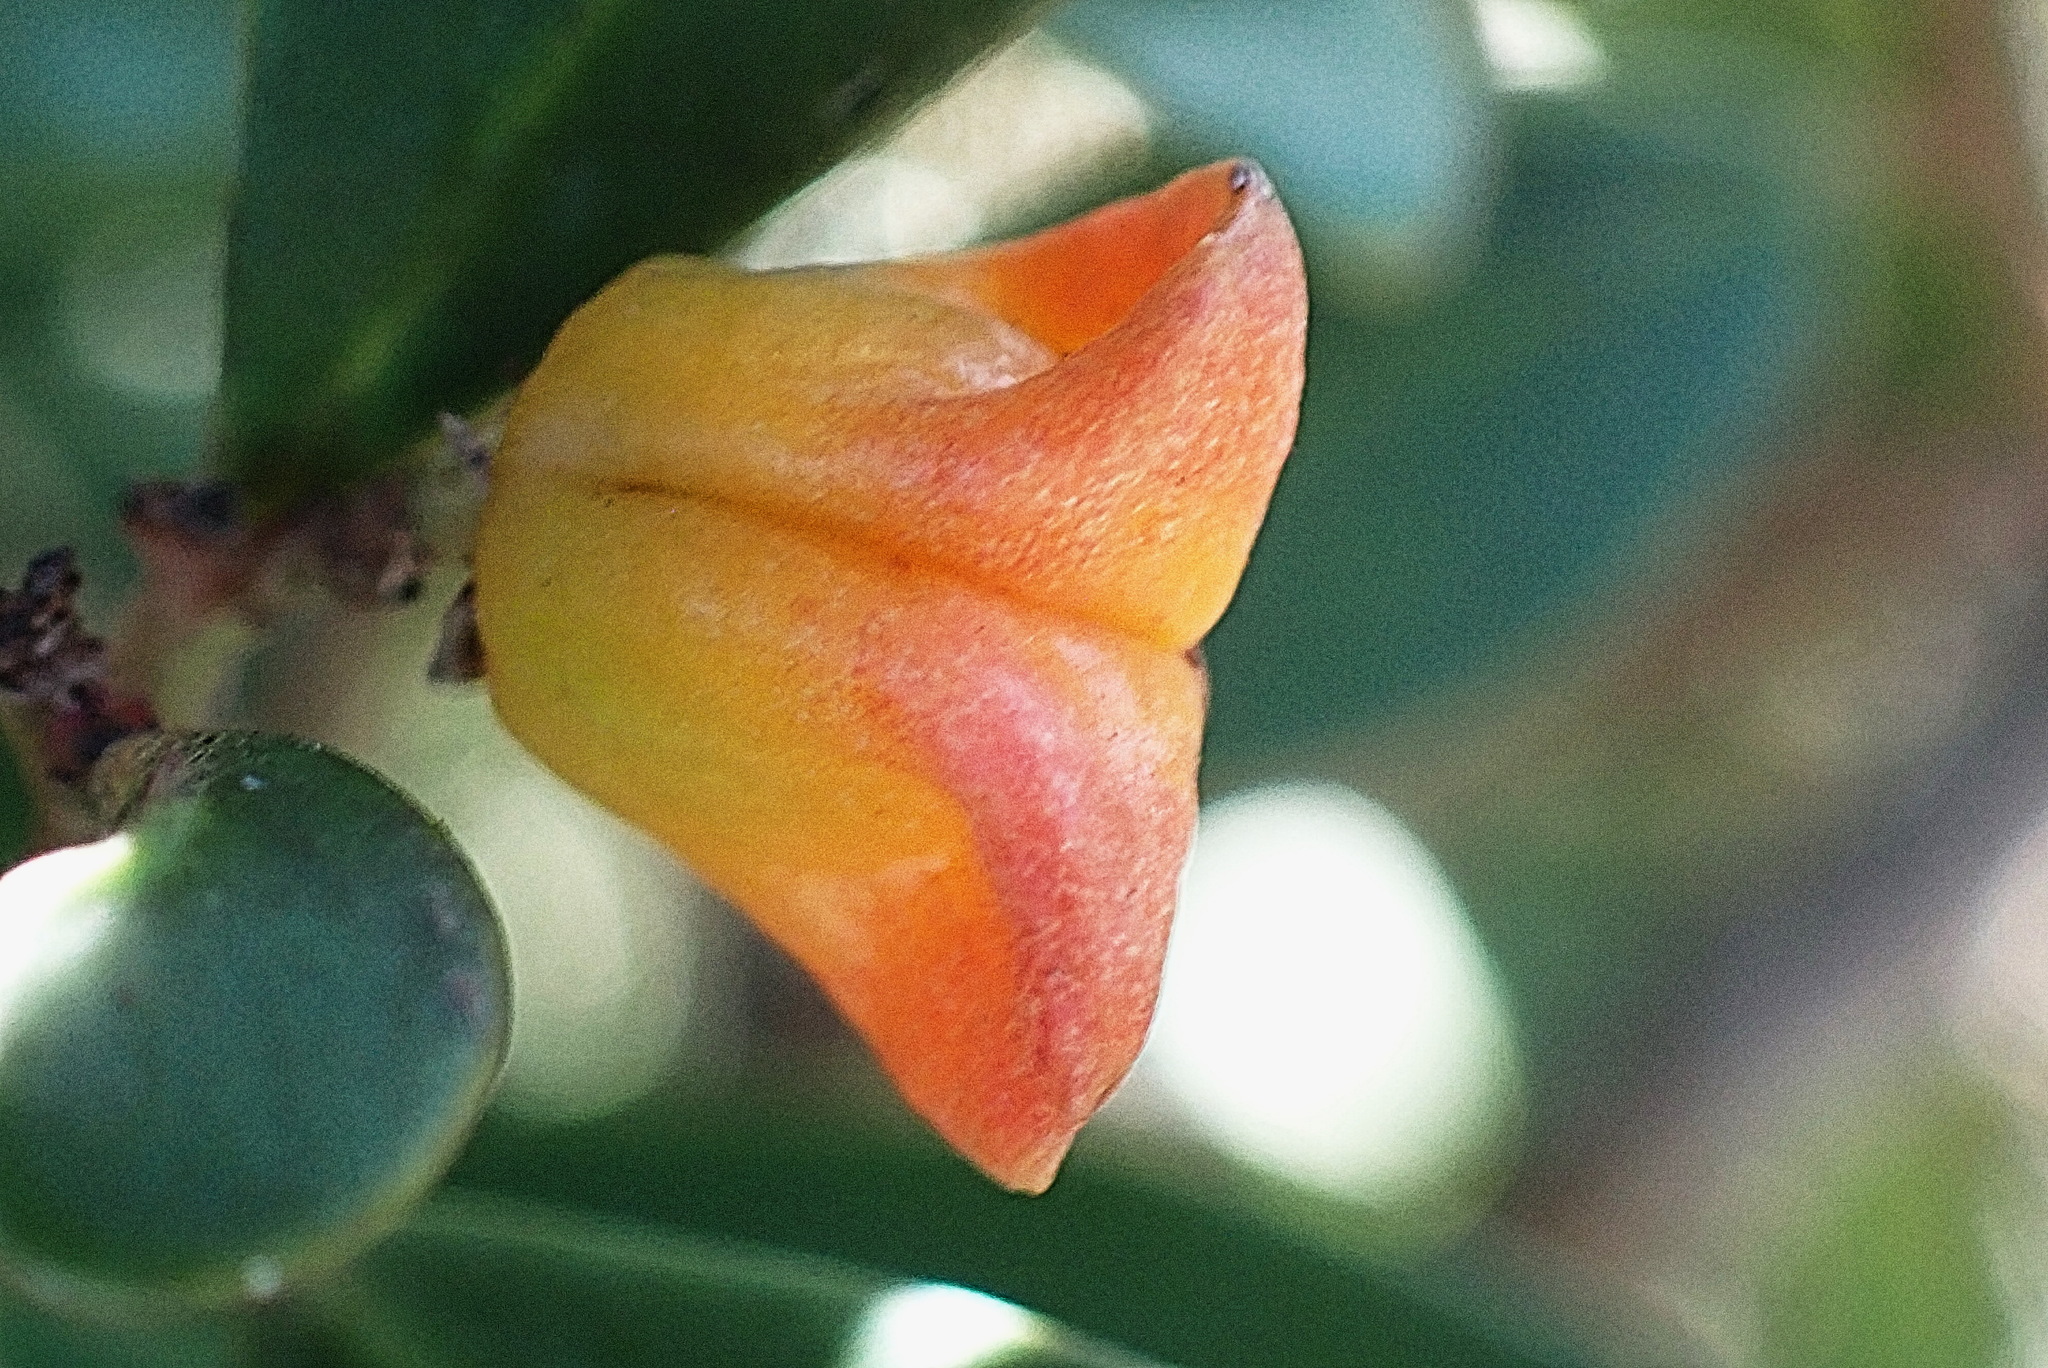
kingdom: Plantae
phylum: Tracheophyta
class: Magnoliopsida
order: Celastrales
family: Celastraceae
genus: Pterocelastrus
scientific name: Pterocelastrus tricuspidatus
